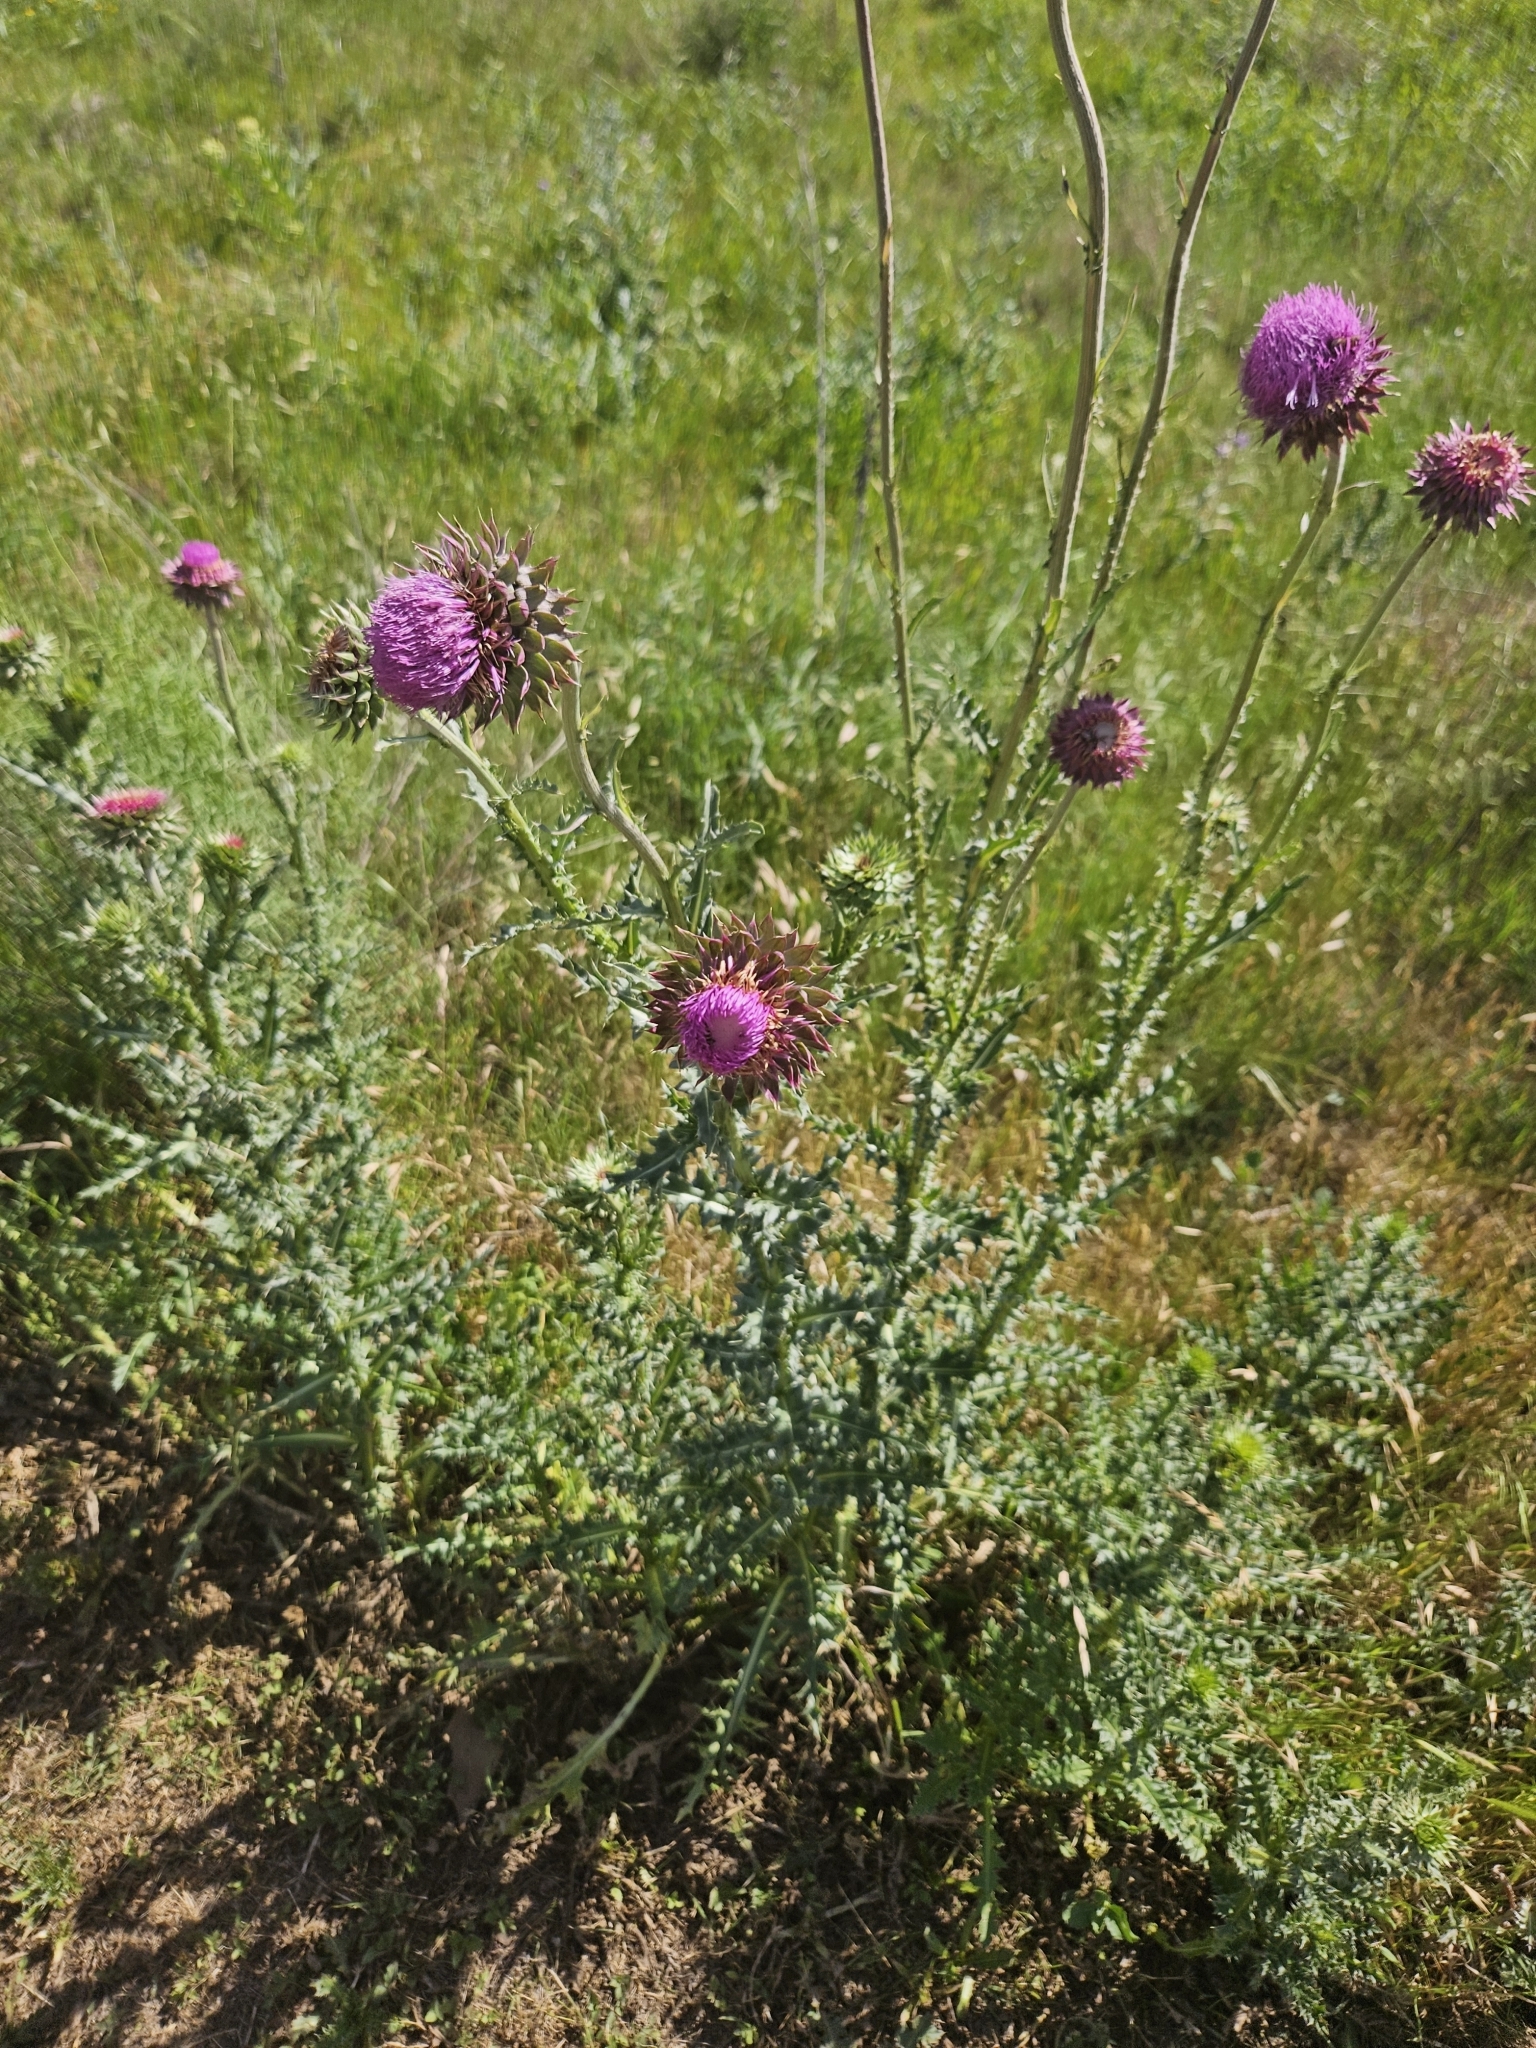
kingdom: Plantae
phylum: Tracheophyta
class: Magnoliopsida
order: Asterales
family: Asteraceae
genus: Carduus
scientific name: Carduus nutans
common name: Musk thistle
